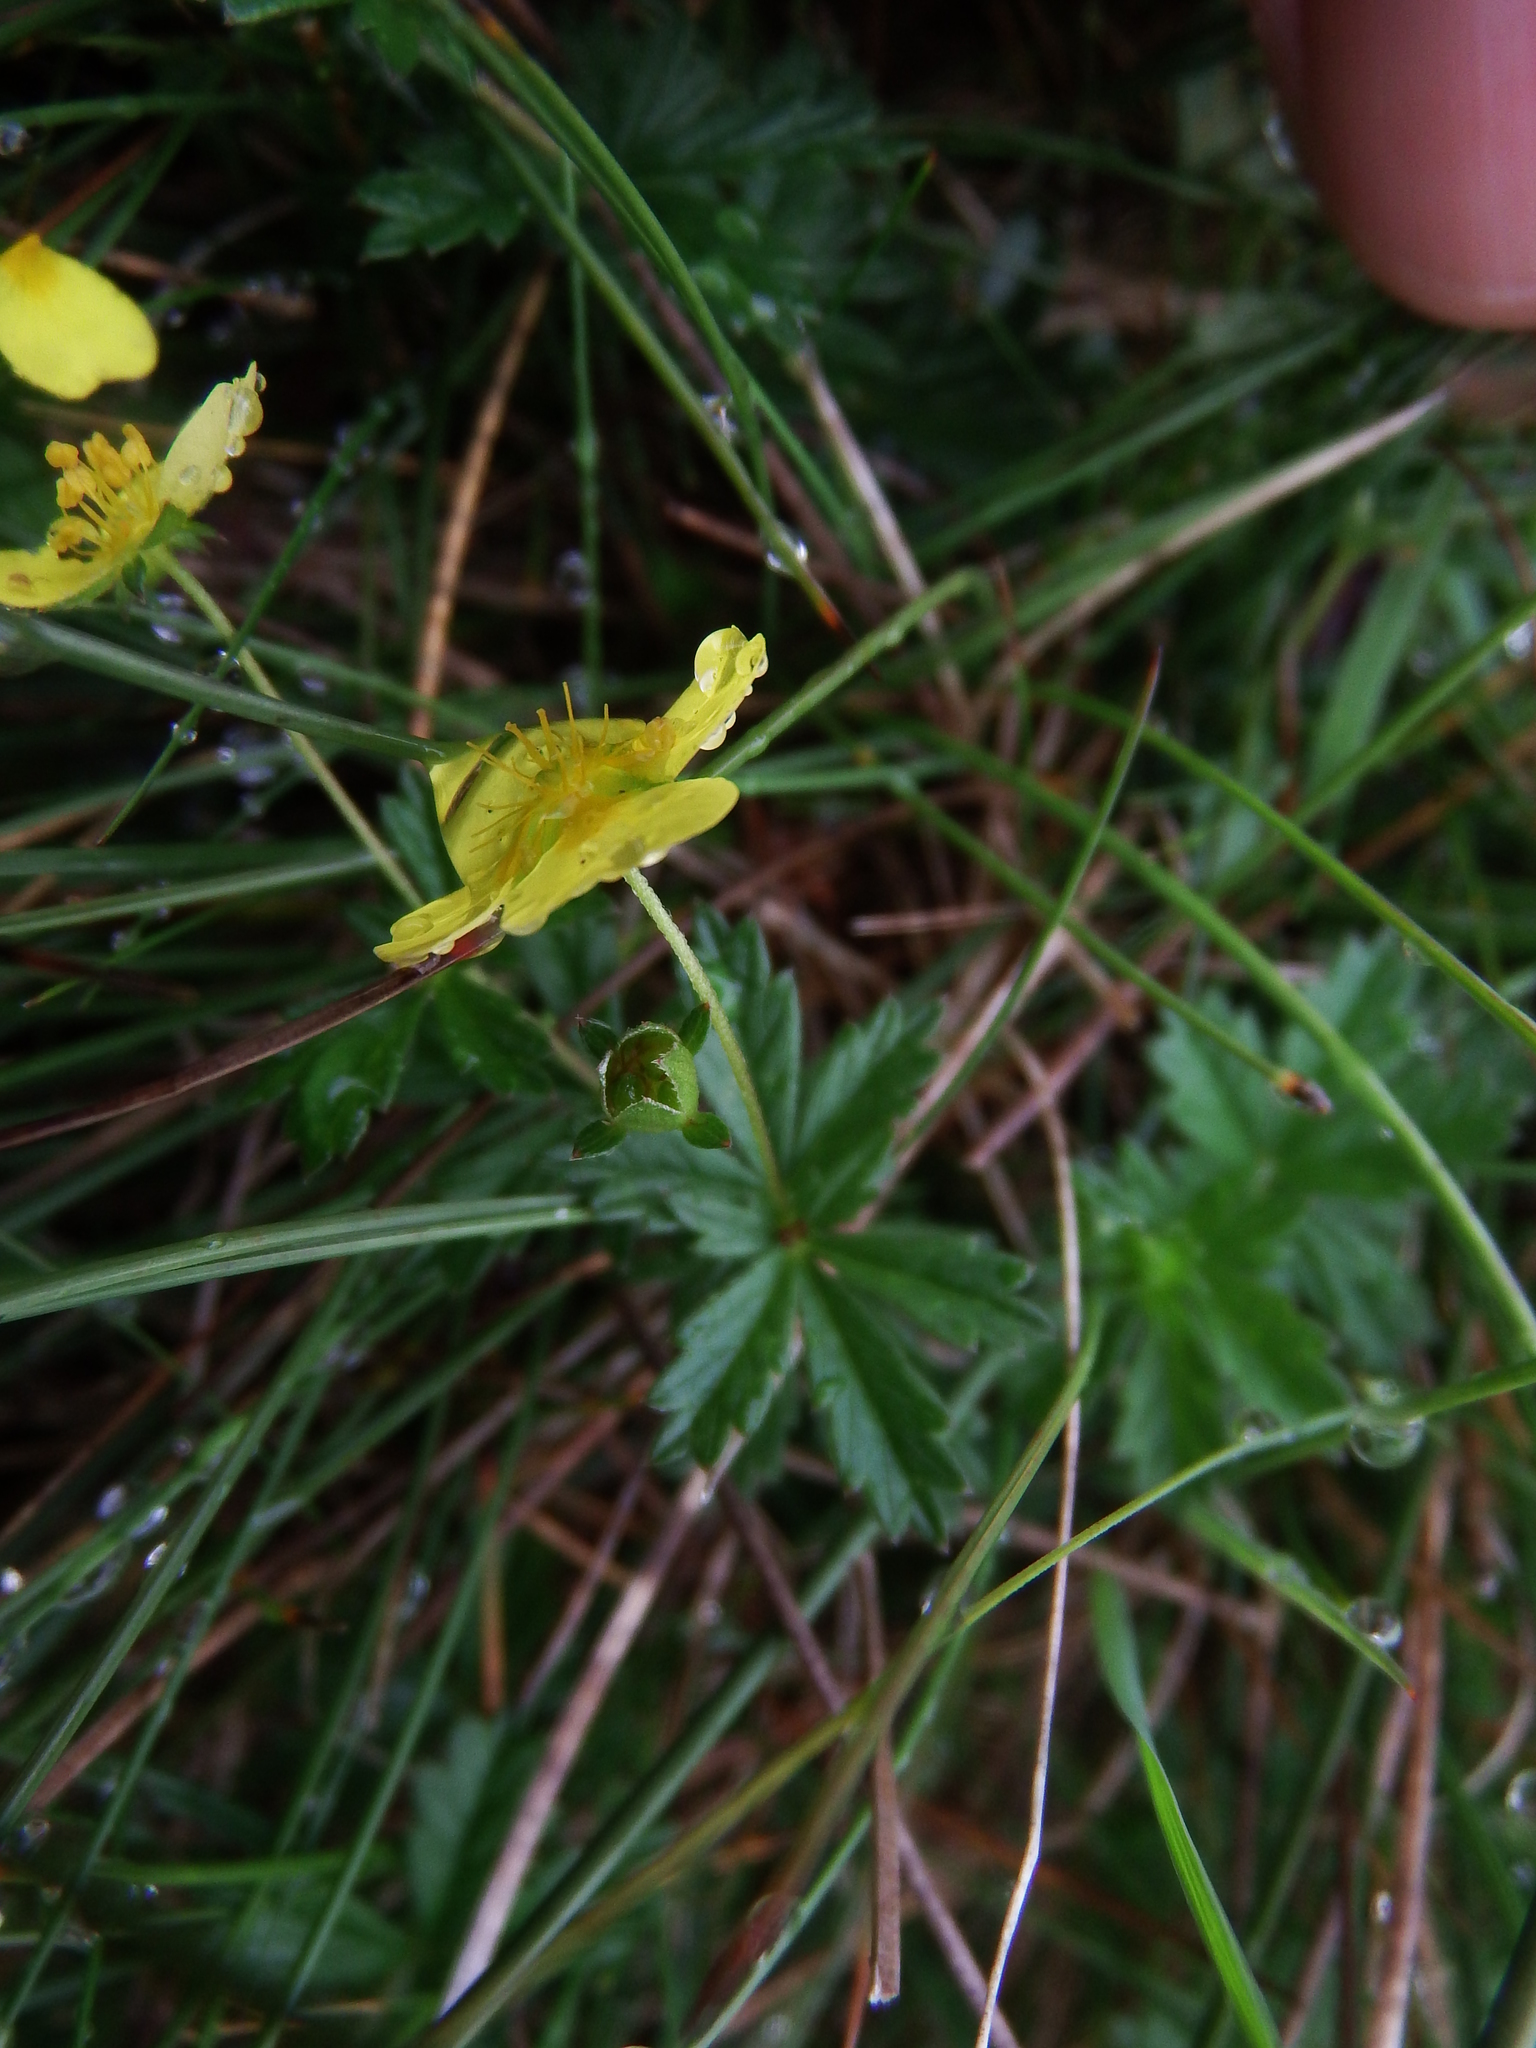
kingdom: Plantae
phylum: Tracheophyta
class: Magnoliopsida
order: Rosales
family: Rosaceae
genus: Potentilla
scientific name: Potentilla erecta
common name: Tormentil
